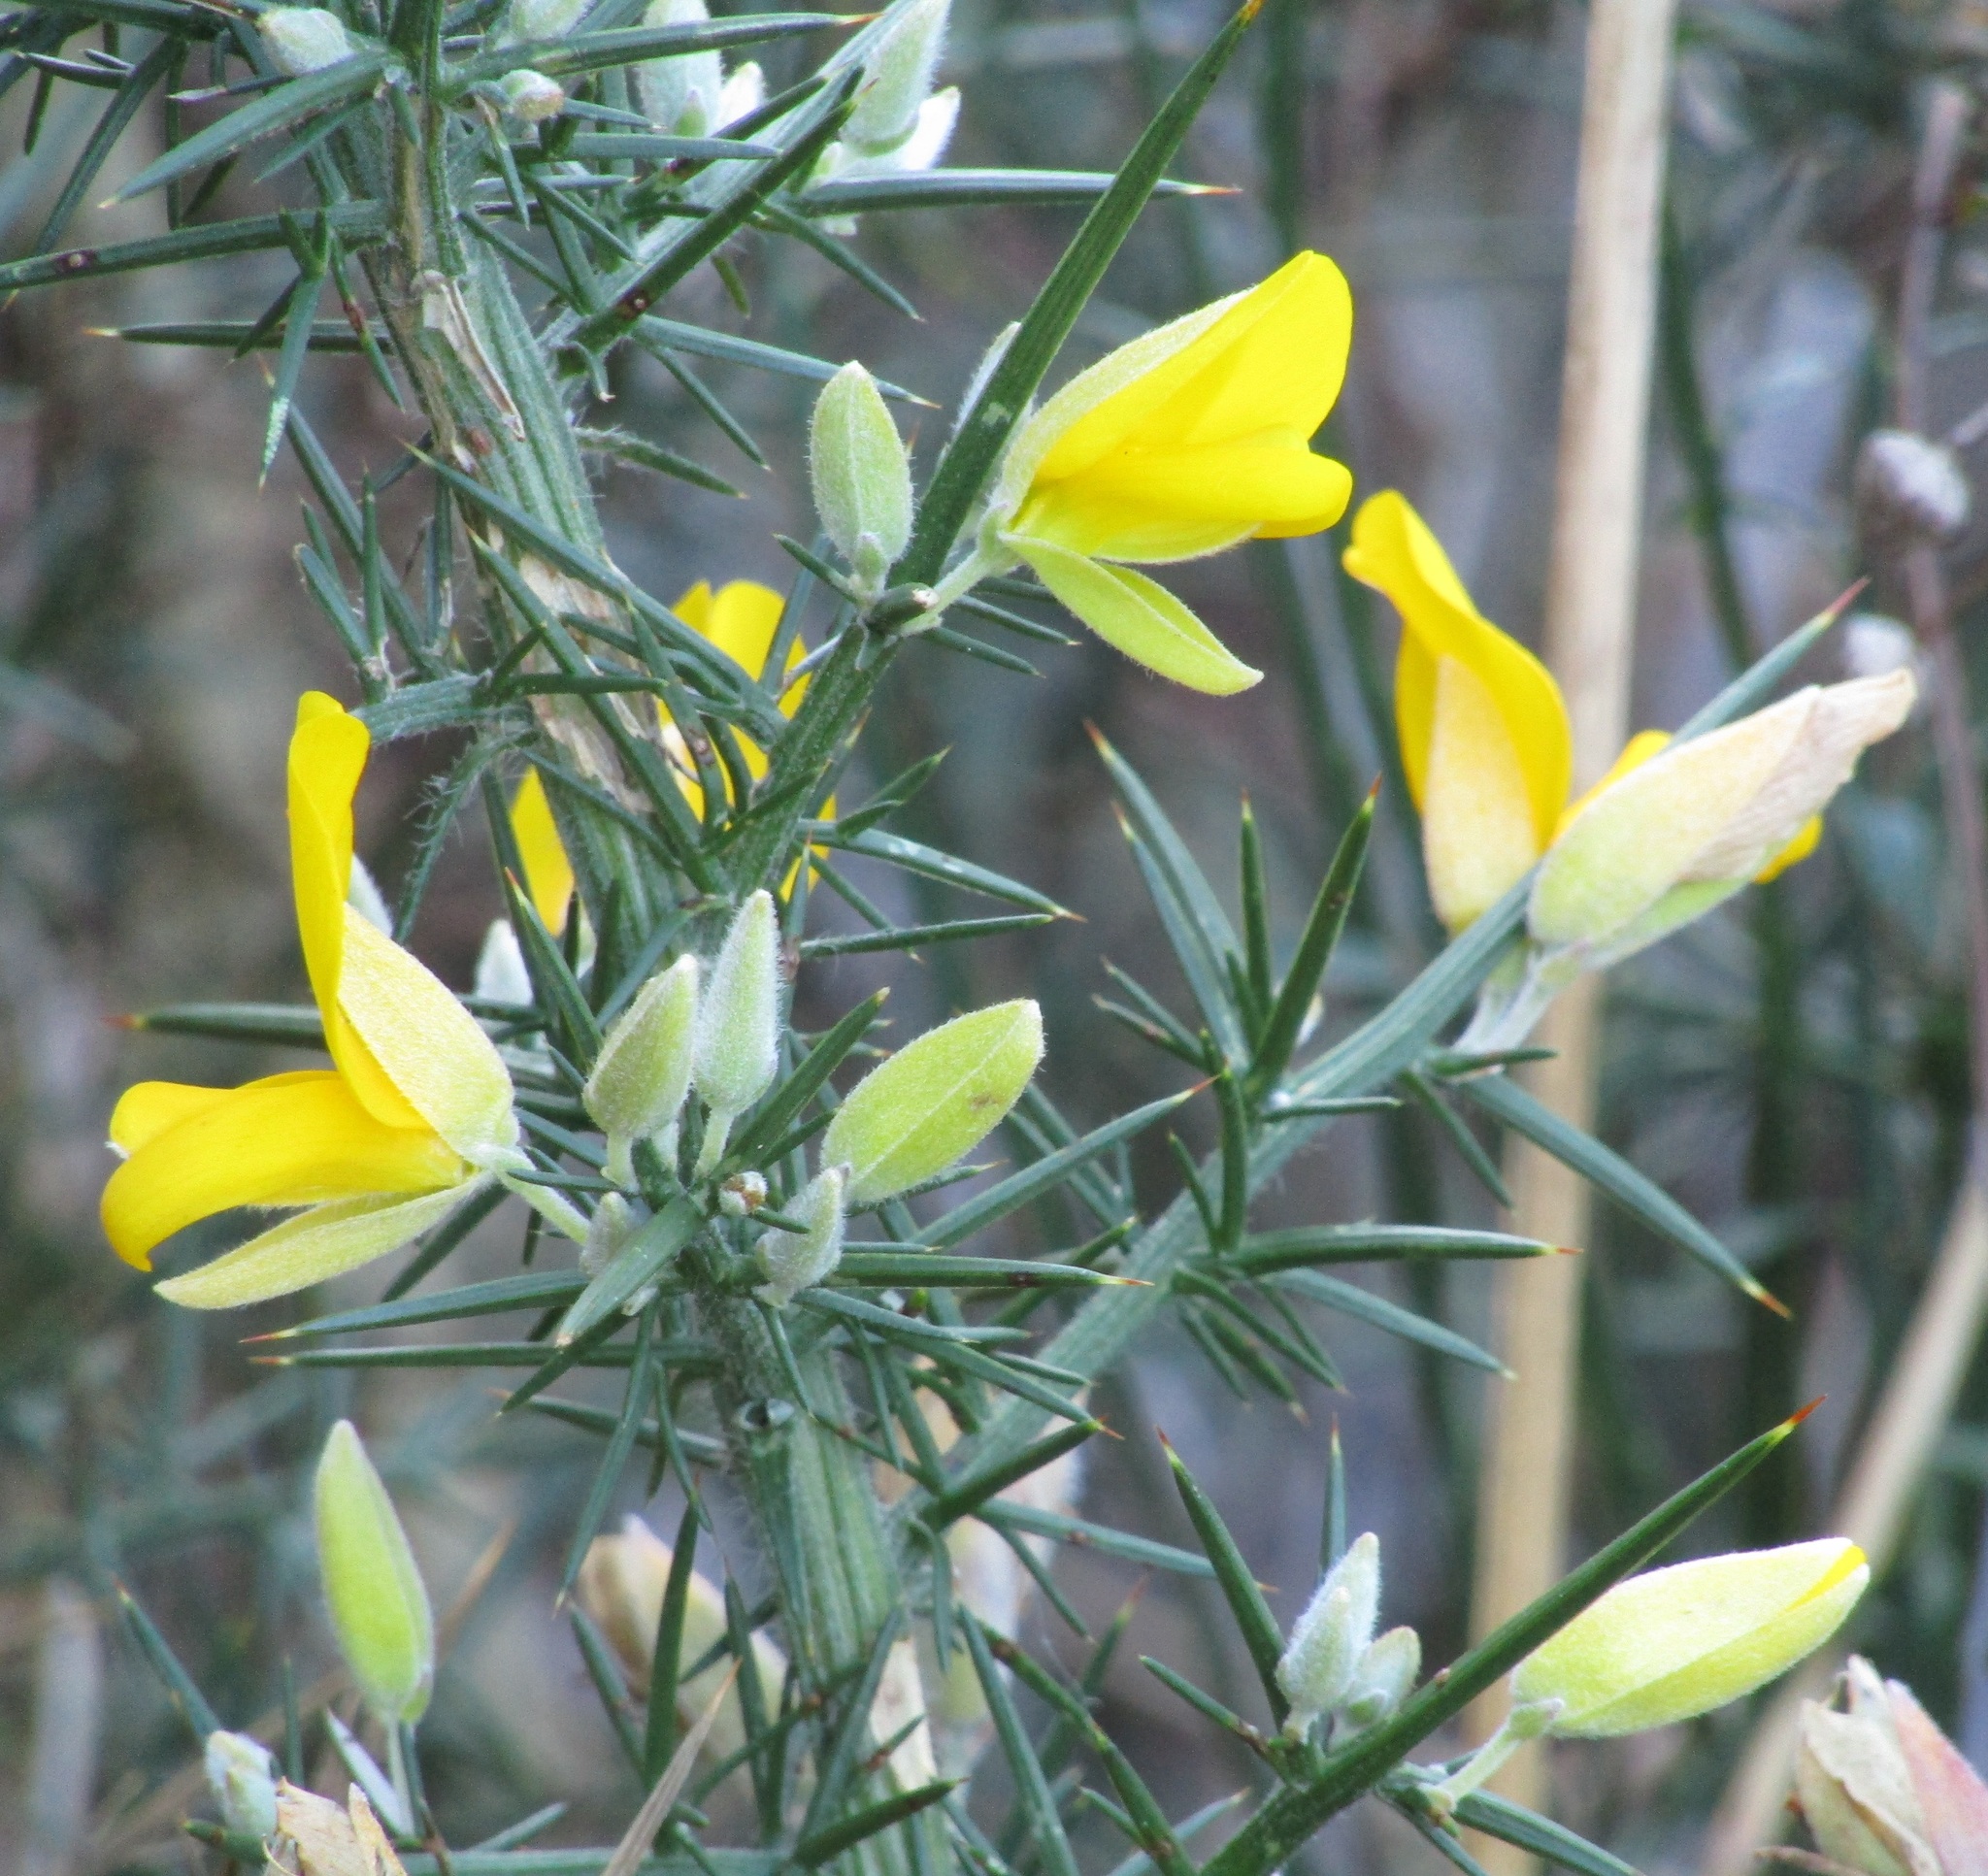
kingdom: Plantae
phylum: Tracheophyta
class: Magnoliopsida
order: Fabales
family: Fabaceae
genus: Ulex
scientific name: Ulex europaeus
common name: Common gorse
